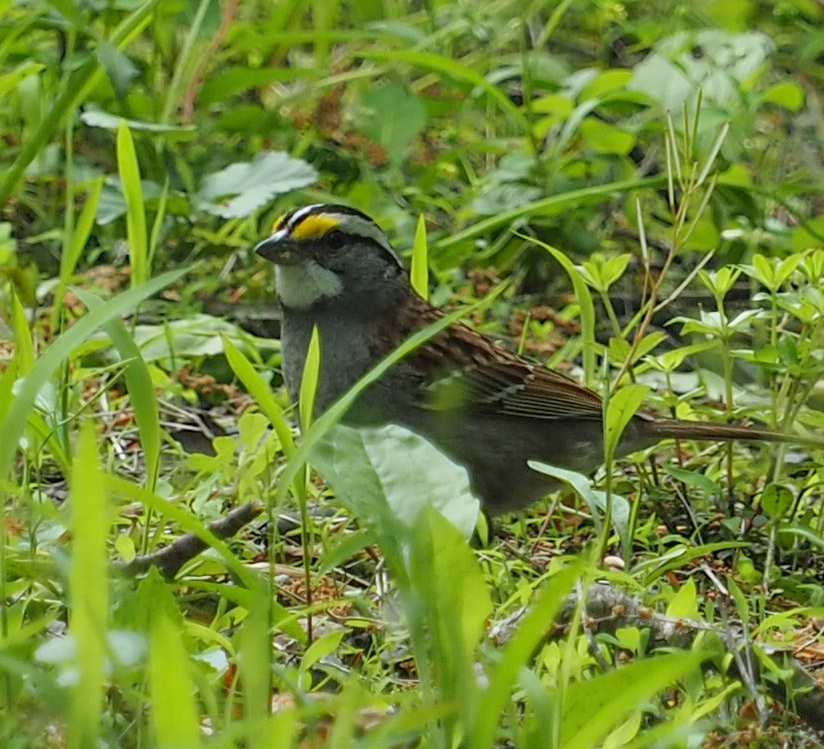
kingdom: Animalia
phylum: Chordata
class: Aves
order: Passeriformes
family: Passerellidae
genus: Zonotrichia
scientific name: Zonotrichia albicollis
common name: White-throated sparrow
